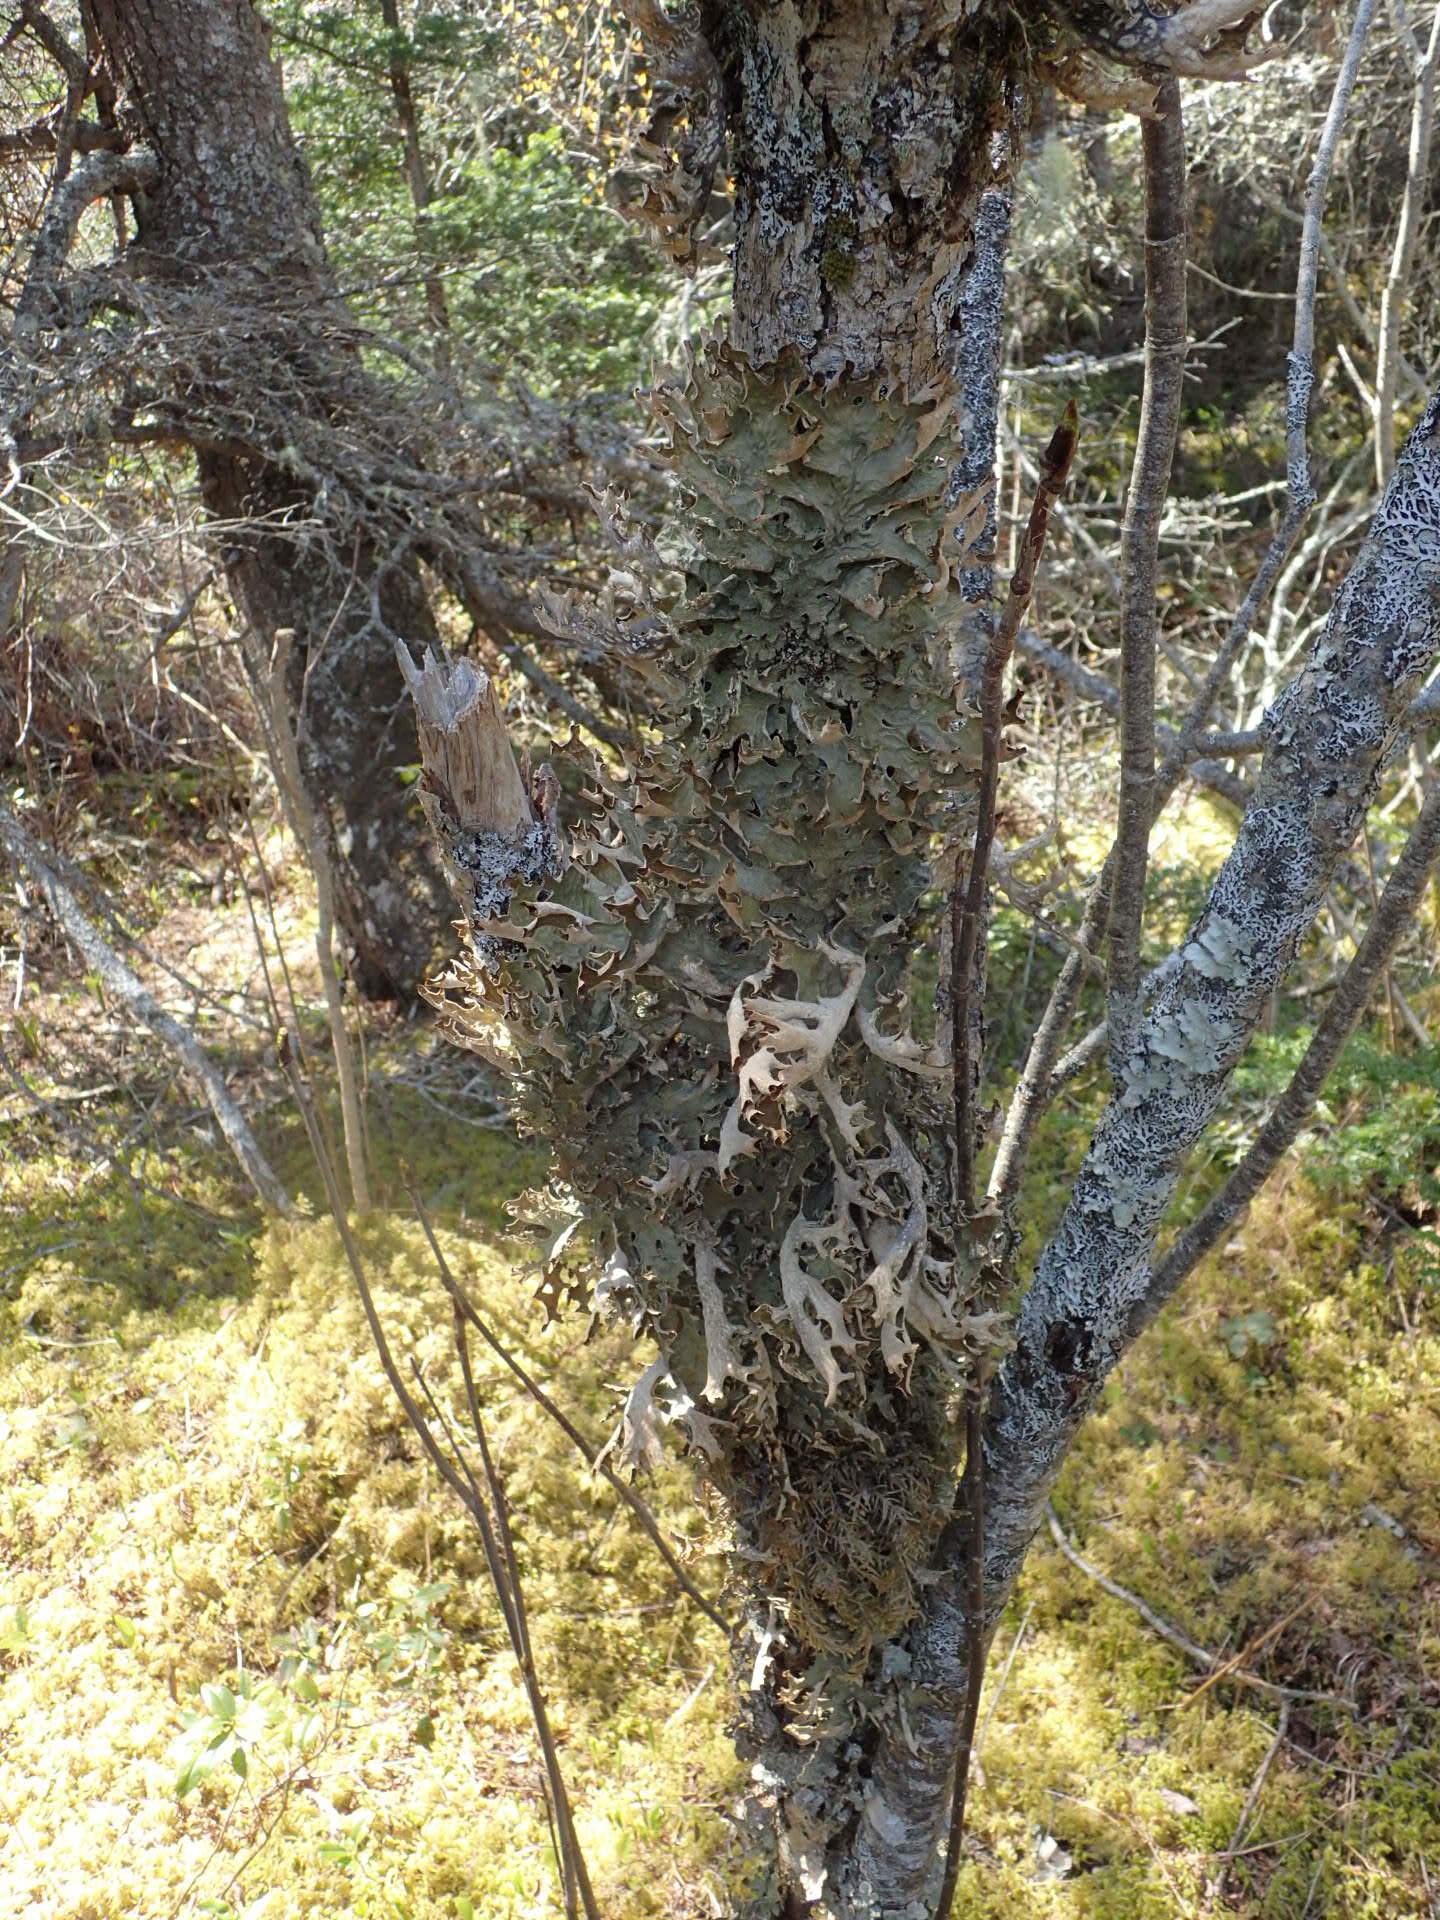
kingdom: Fungi
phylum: Ascomycota
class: Lecanoromycetes
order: Peltigerales
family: Lobariaceae
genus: Lobaria
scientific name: Lobaria pulmonaria
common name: Lungwort
